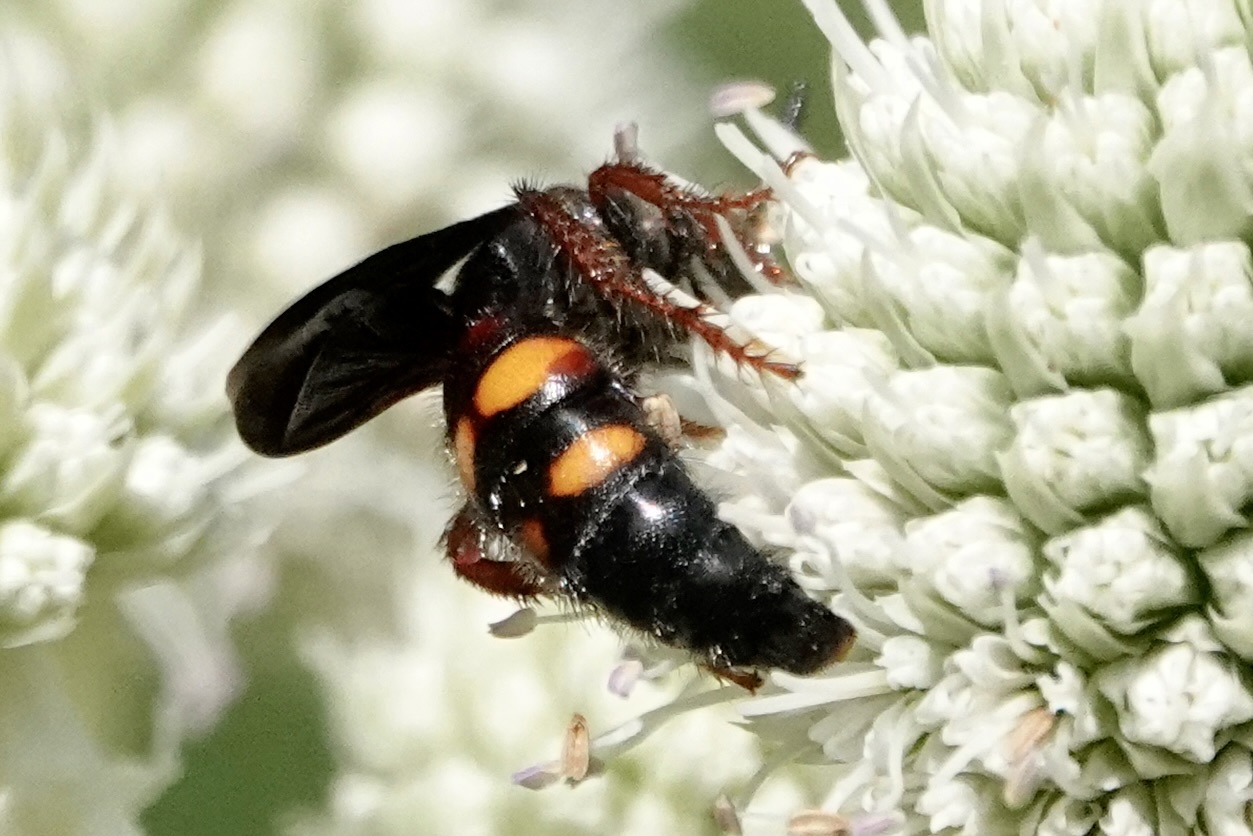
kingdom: Animalia
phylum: Arthropoda
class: Insecta
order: Hymenoptera
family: Scoliidae
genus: Scolia
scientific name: Scolia nobilitata
